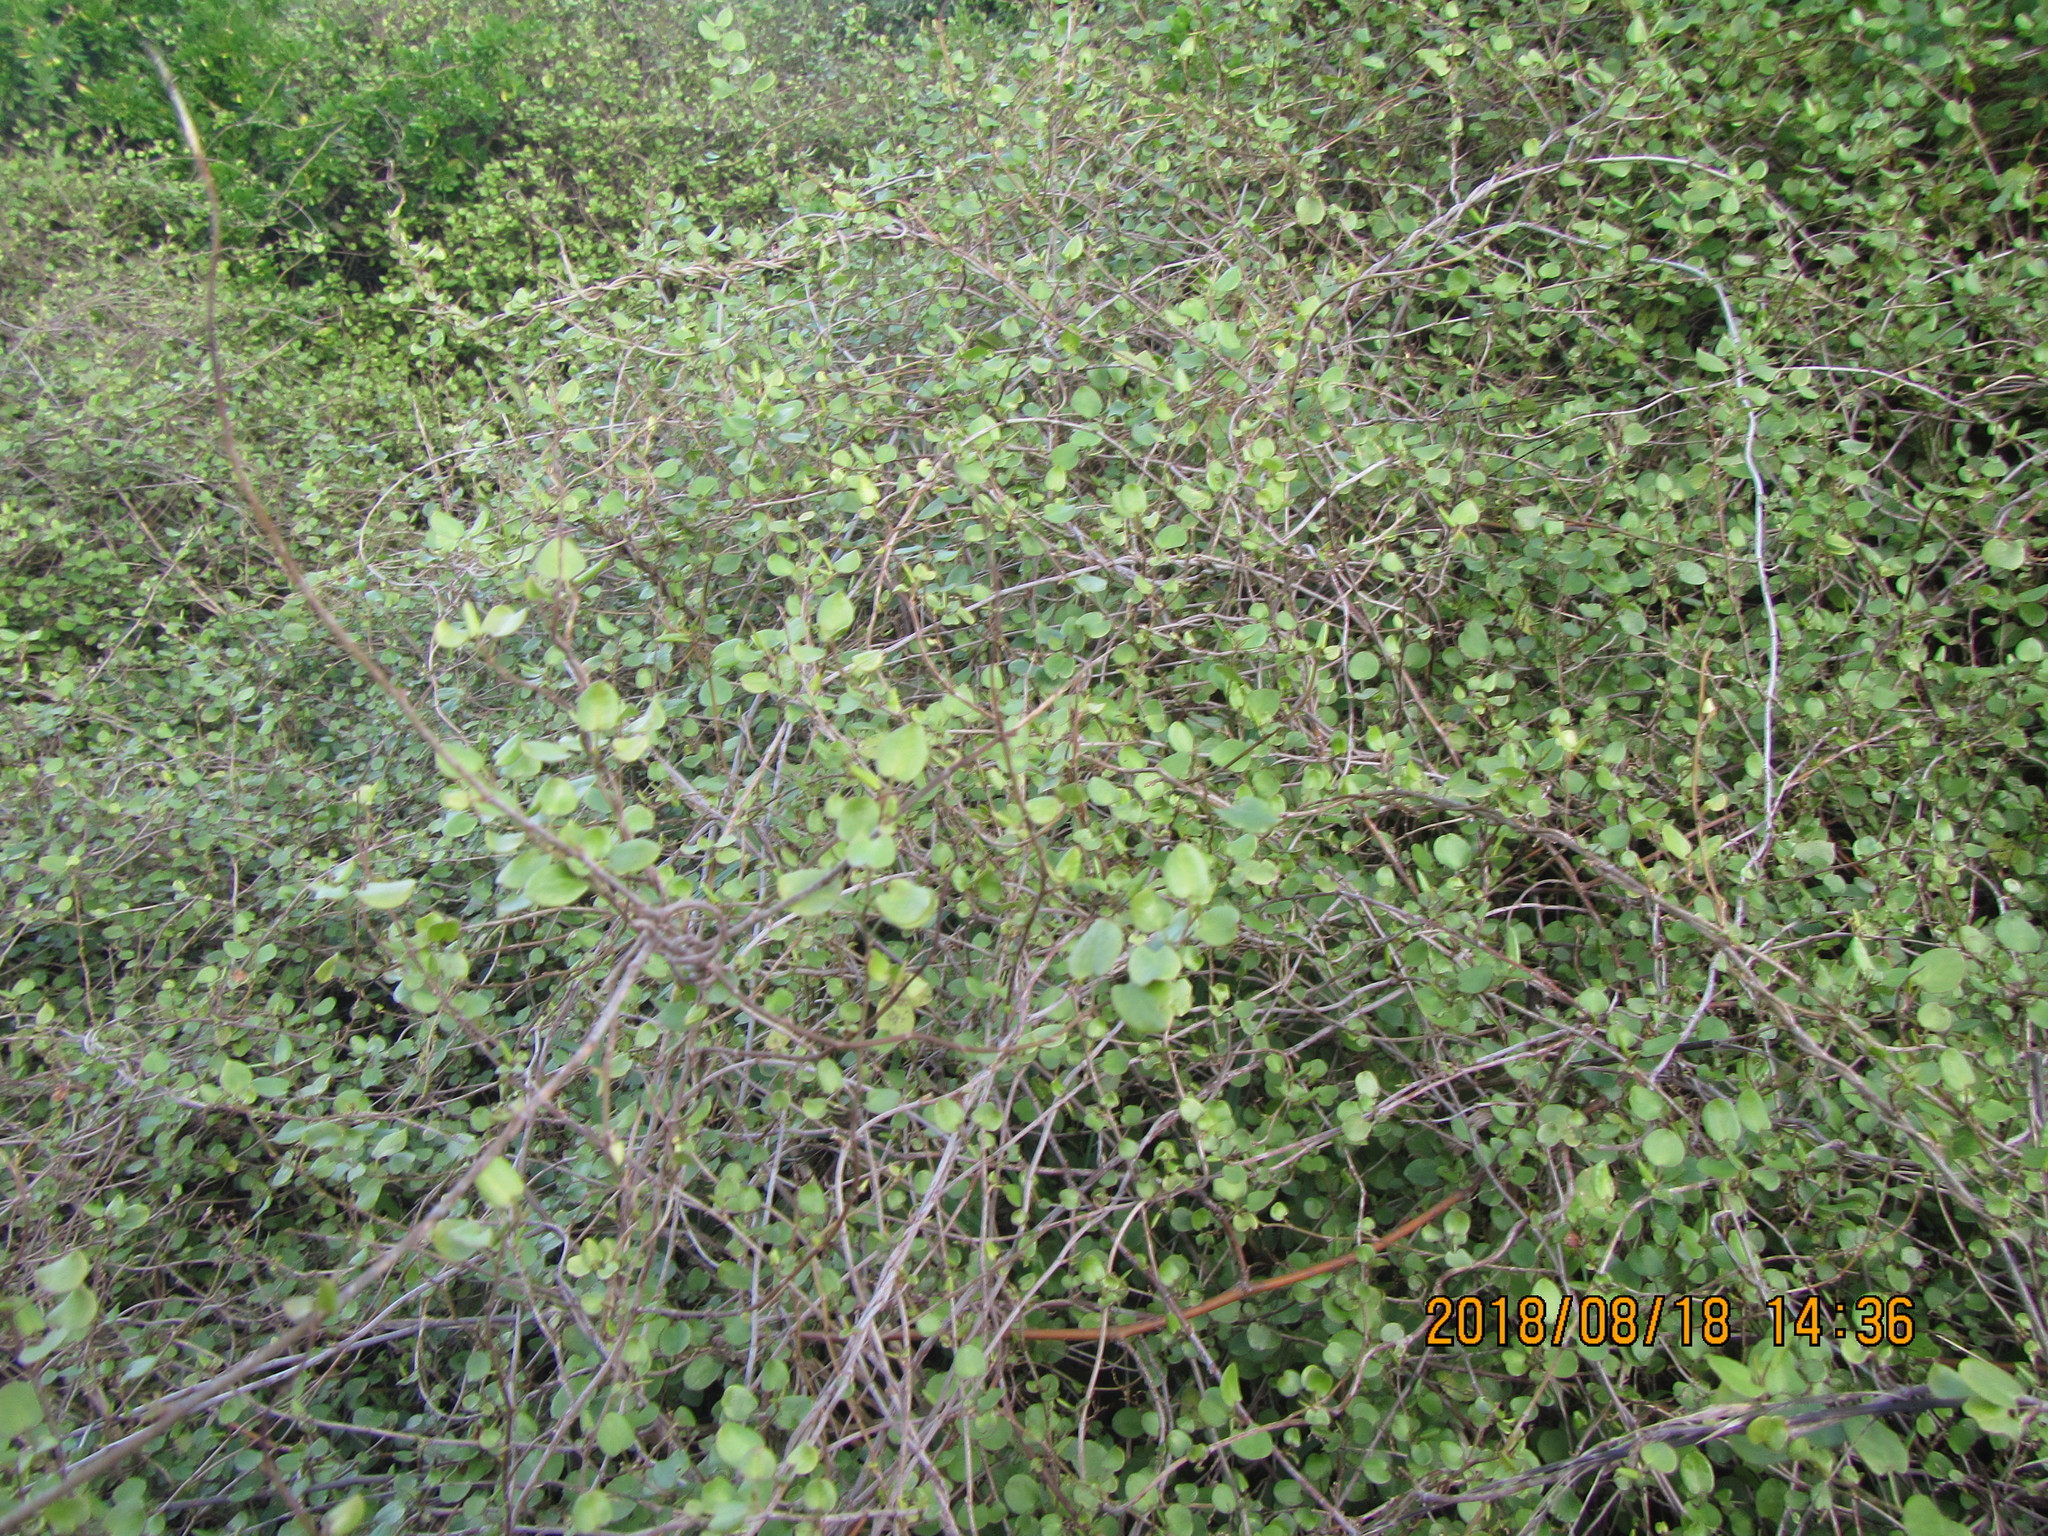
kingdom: Plantae
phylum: Tracheophyta
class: Magnoliopsida
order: Caryophyllales
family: Polygonaceae
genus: Muehlenbeckia
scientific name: Muehlenbeckia complexa
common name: Wireplant
